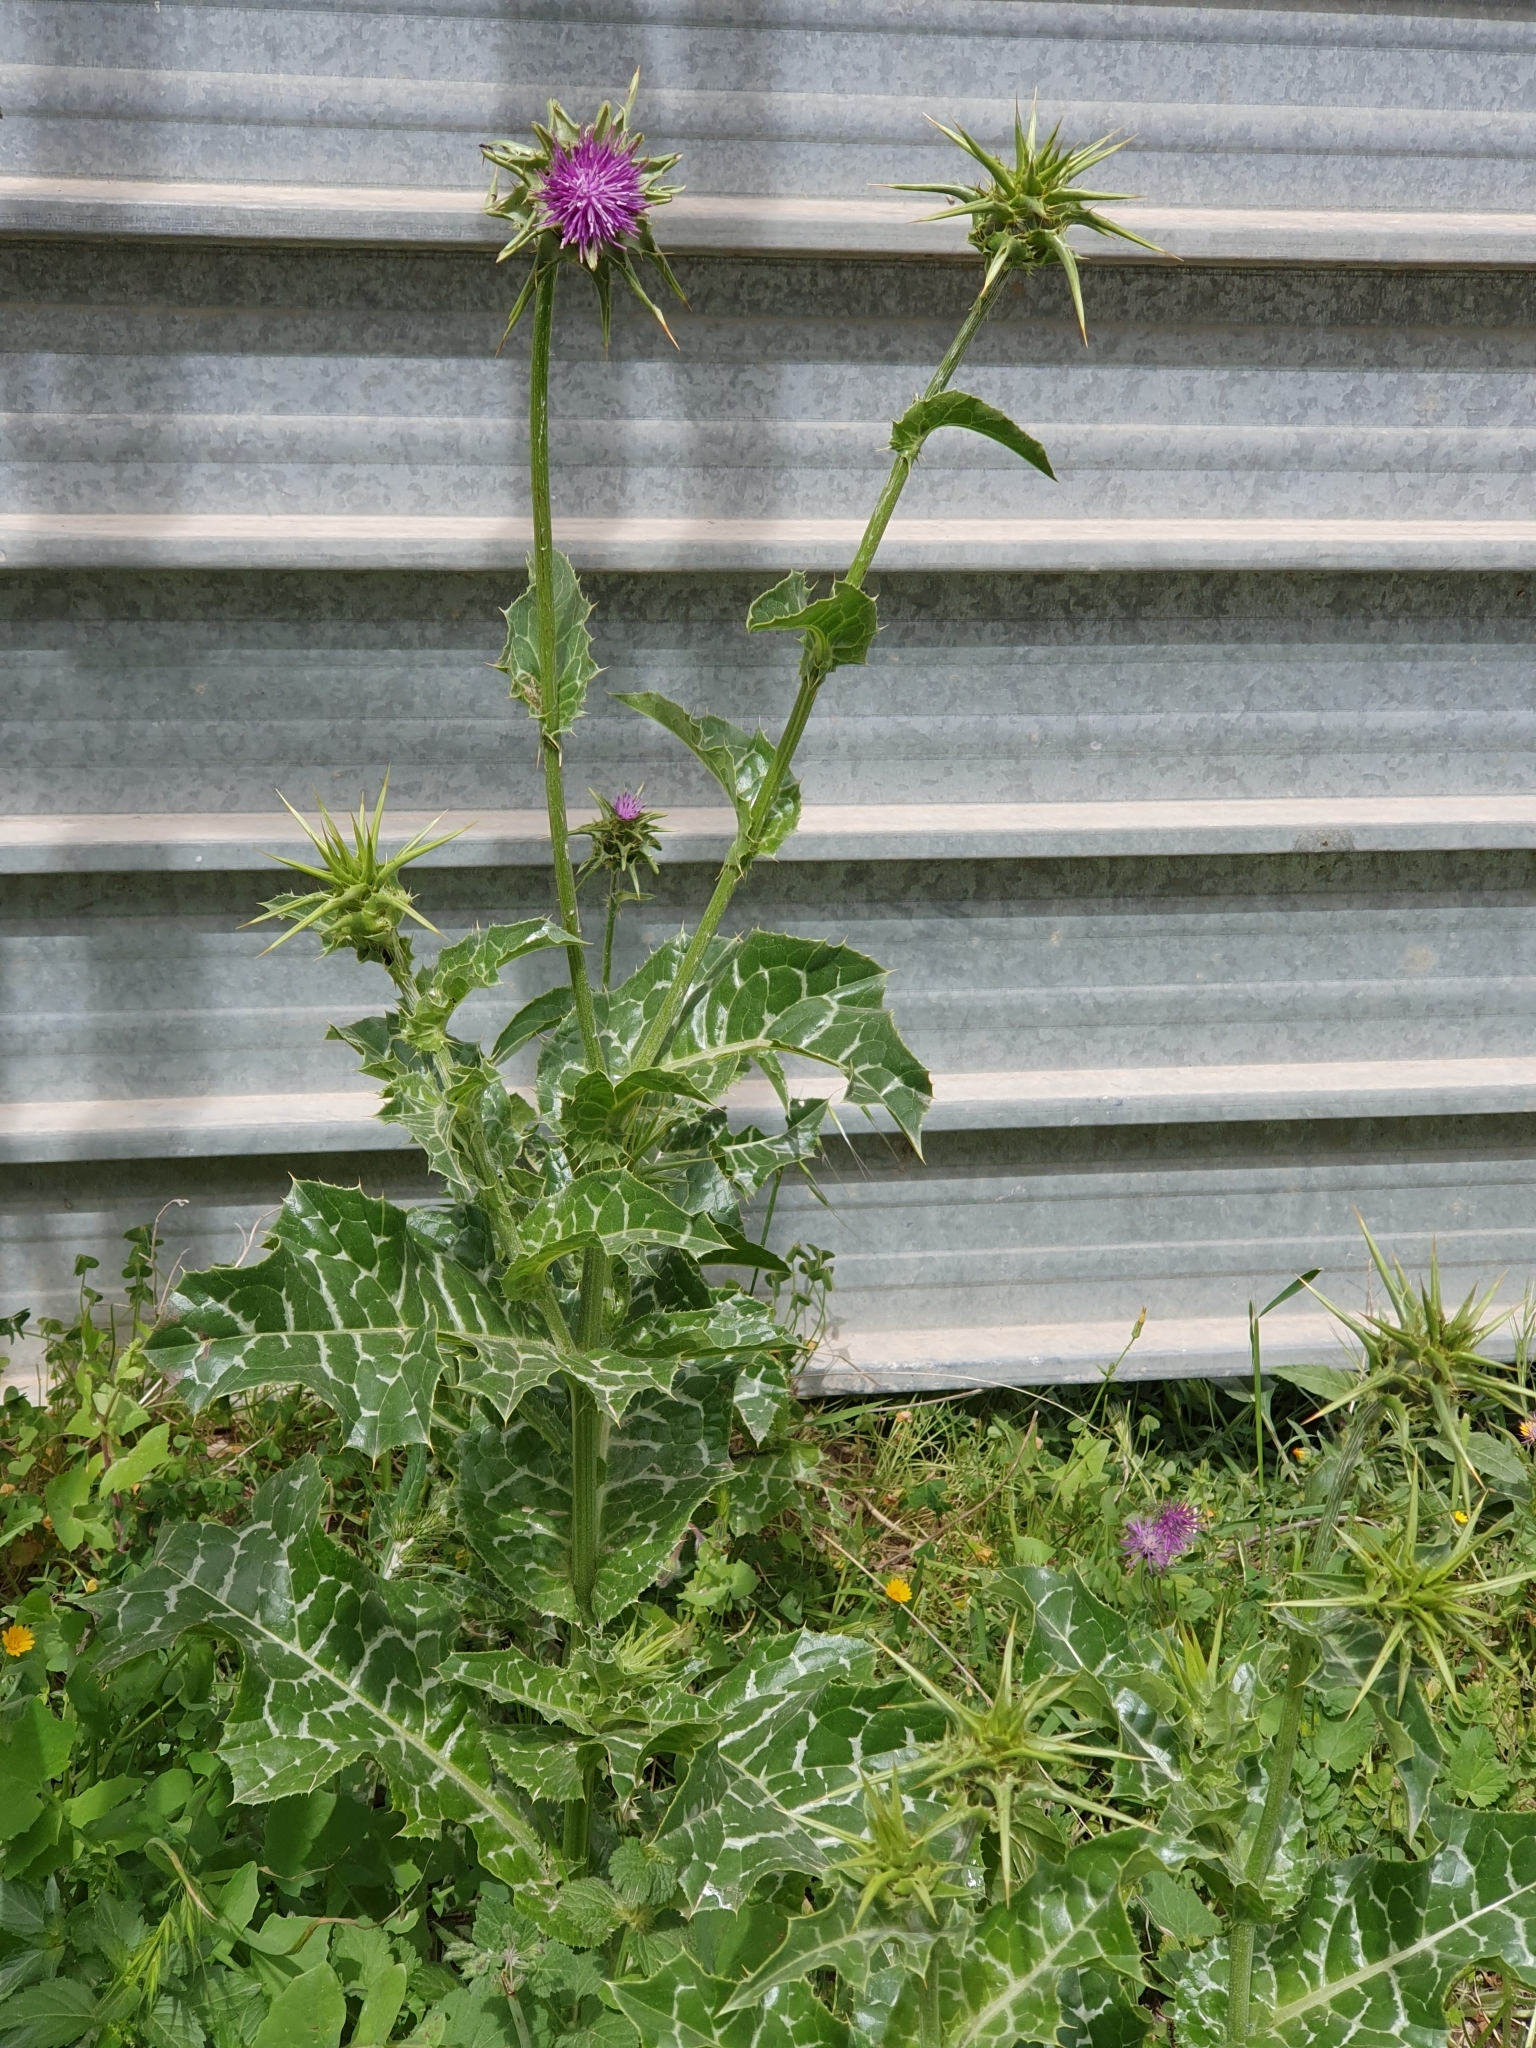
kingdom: Plantae
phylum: Tracheophyta
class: Magnoliopsida
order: Asterales
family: Asteraceae
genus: Silybum
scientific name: Silybum marianum
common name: Milk thistle
